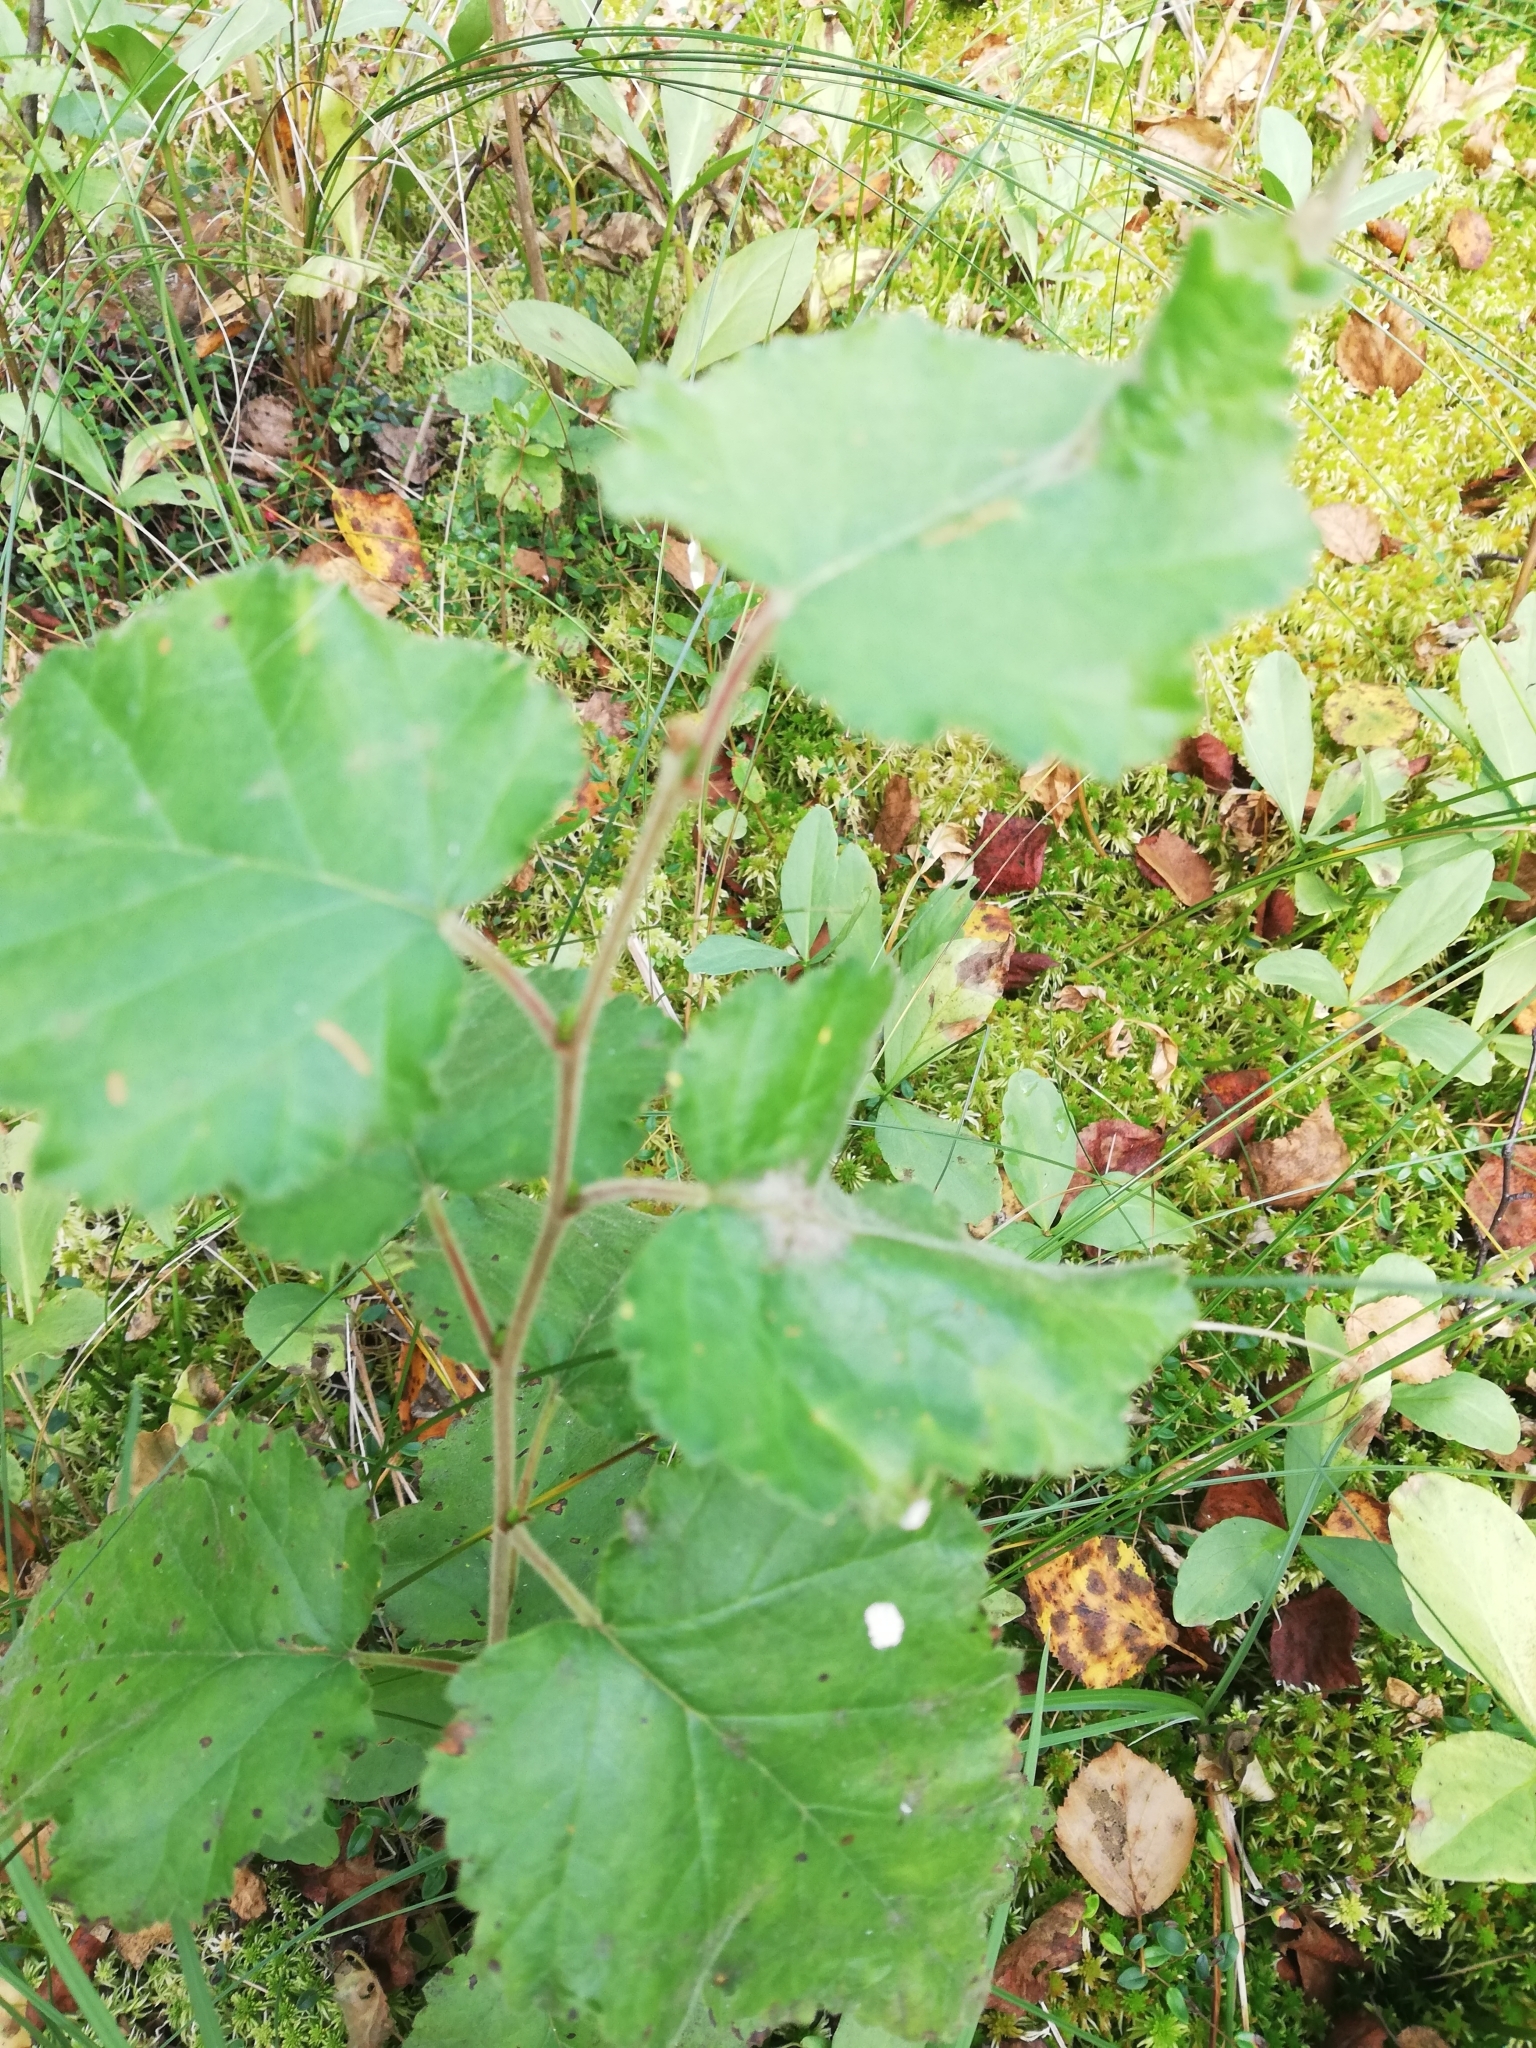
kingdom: Plantae
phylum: Tracheophyta
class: Magnoliopsida
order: Fagales
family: Betulaceae
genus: Betula
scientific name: Betula pubescens
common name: Downy birch
